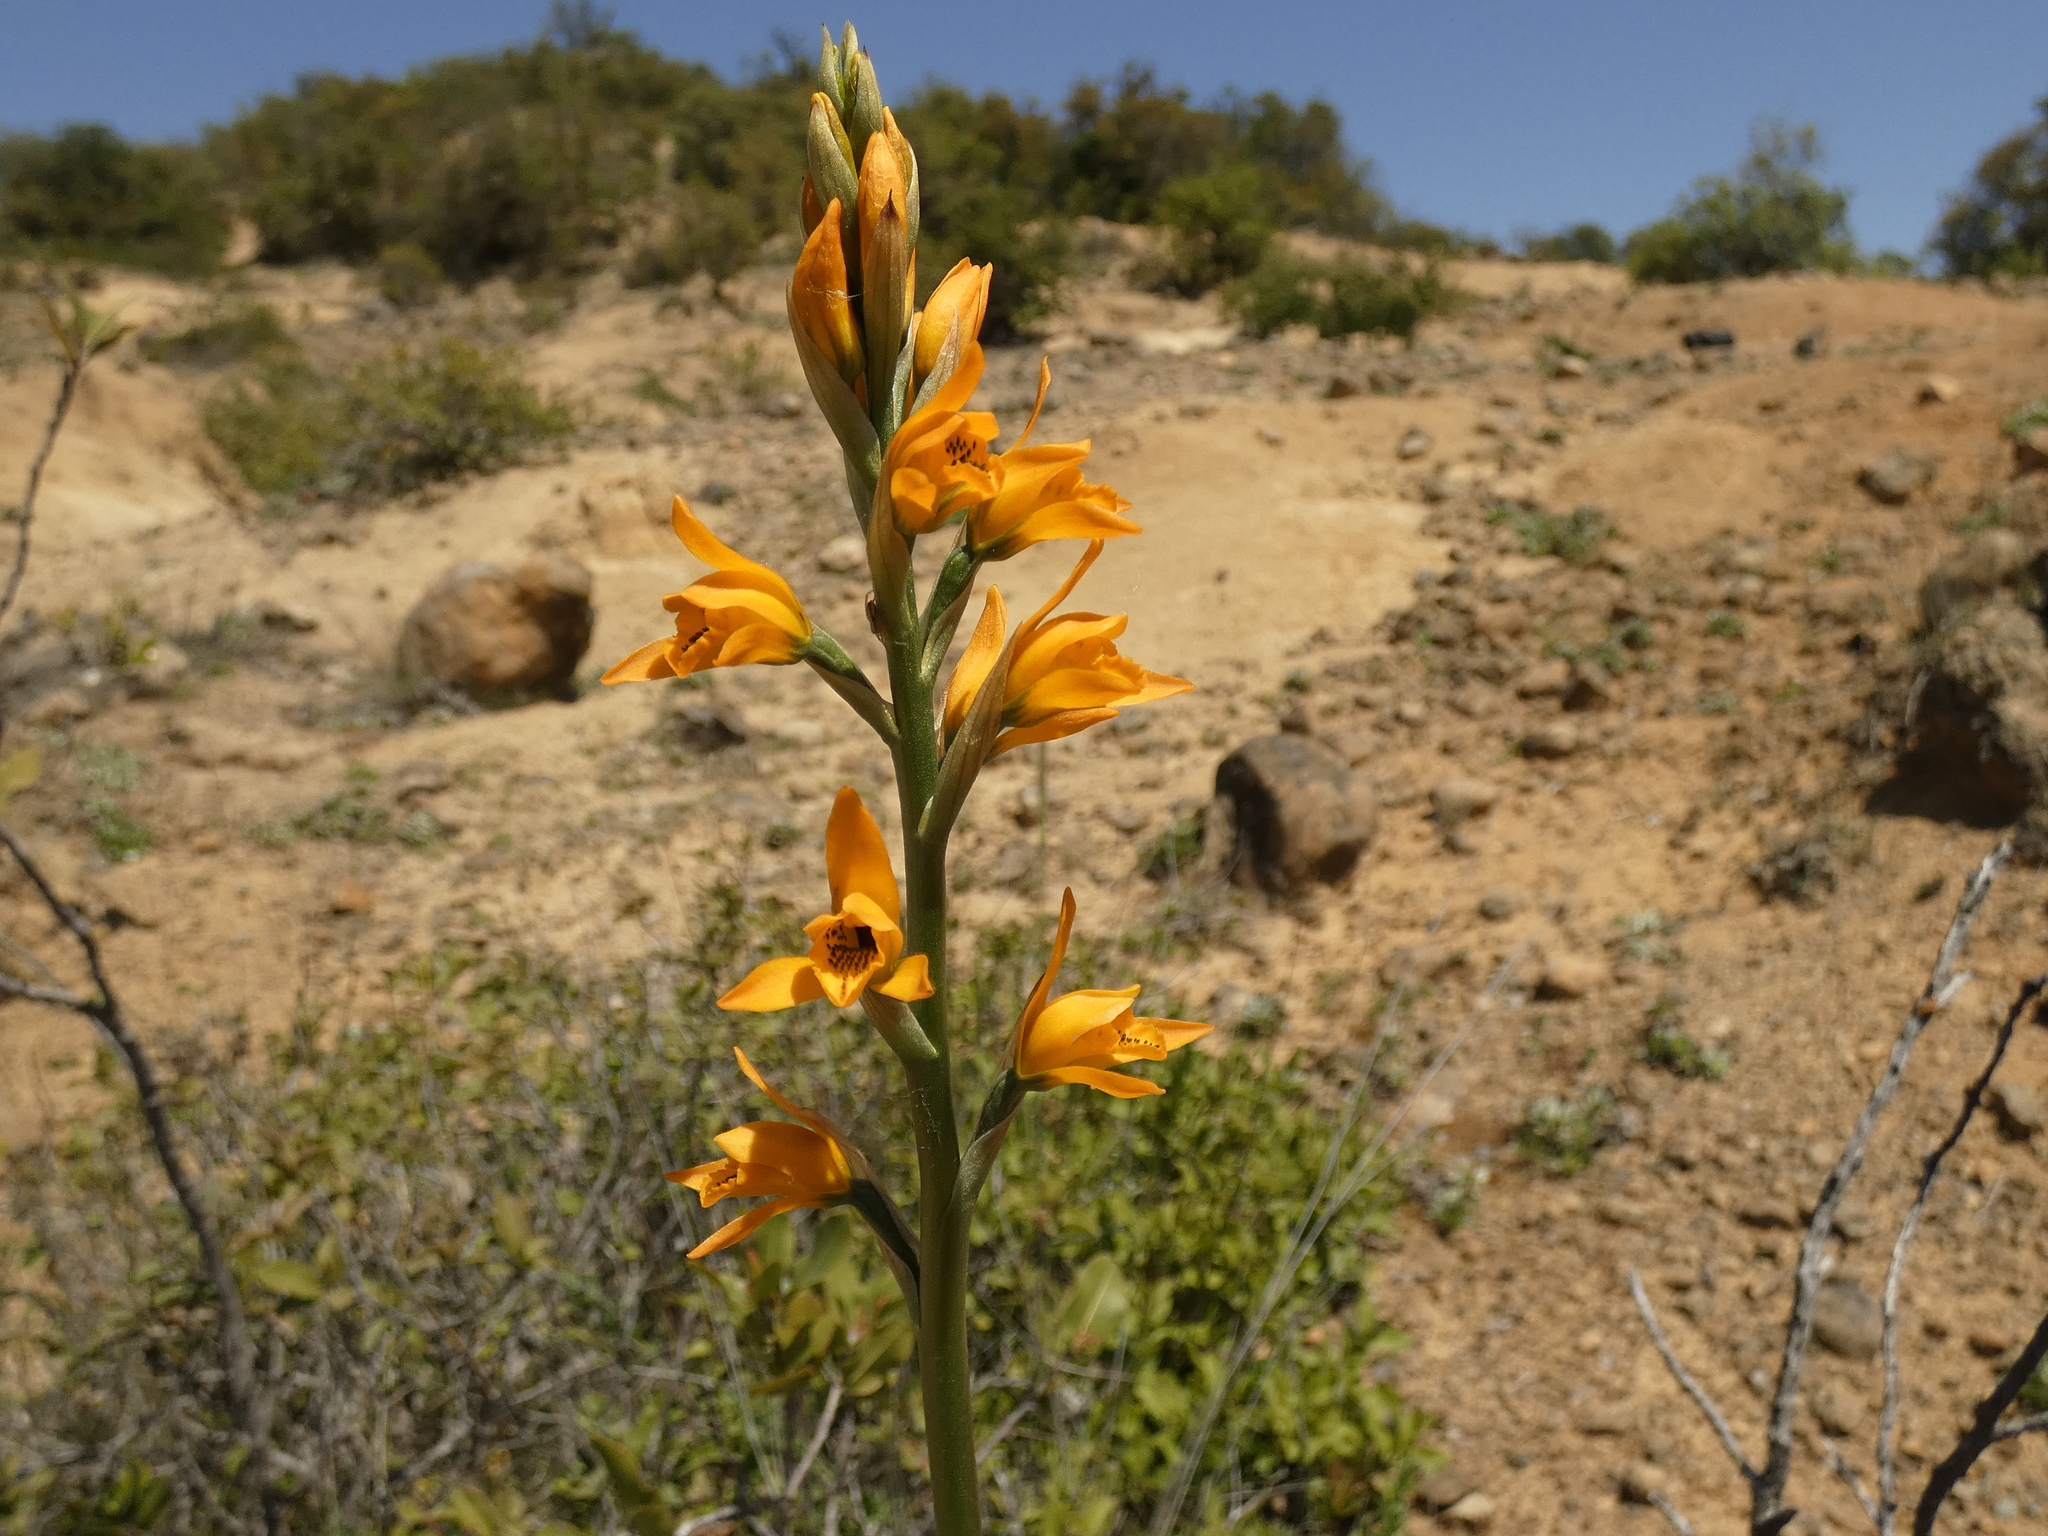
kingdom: Plantae
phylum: Tracheophyta
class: Liliopsida
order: Asparagales
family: Orchidaceae
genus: Chloraea
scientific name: Chloraea chrysantha
